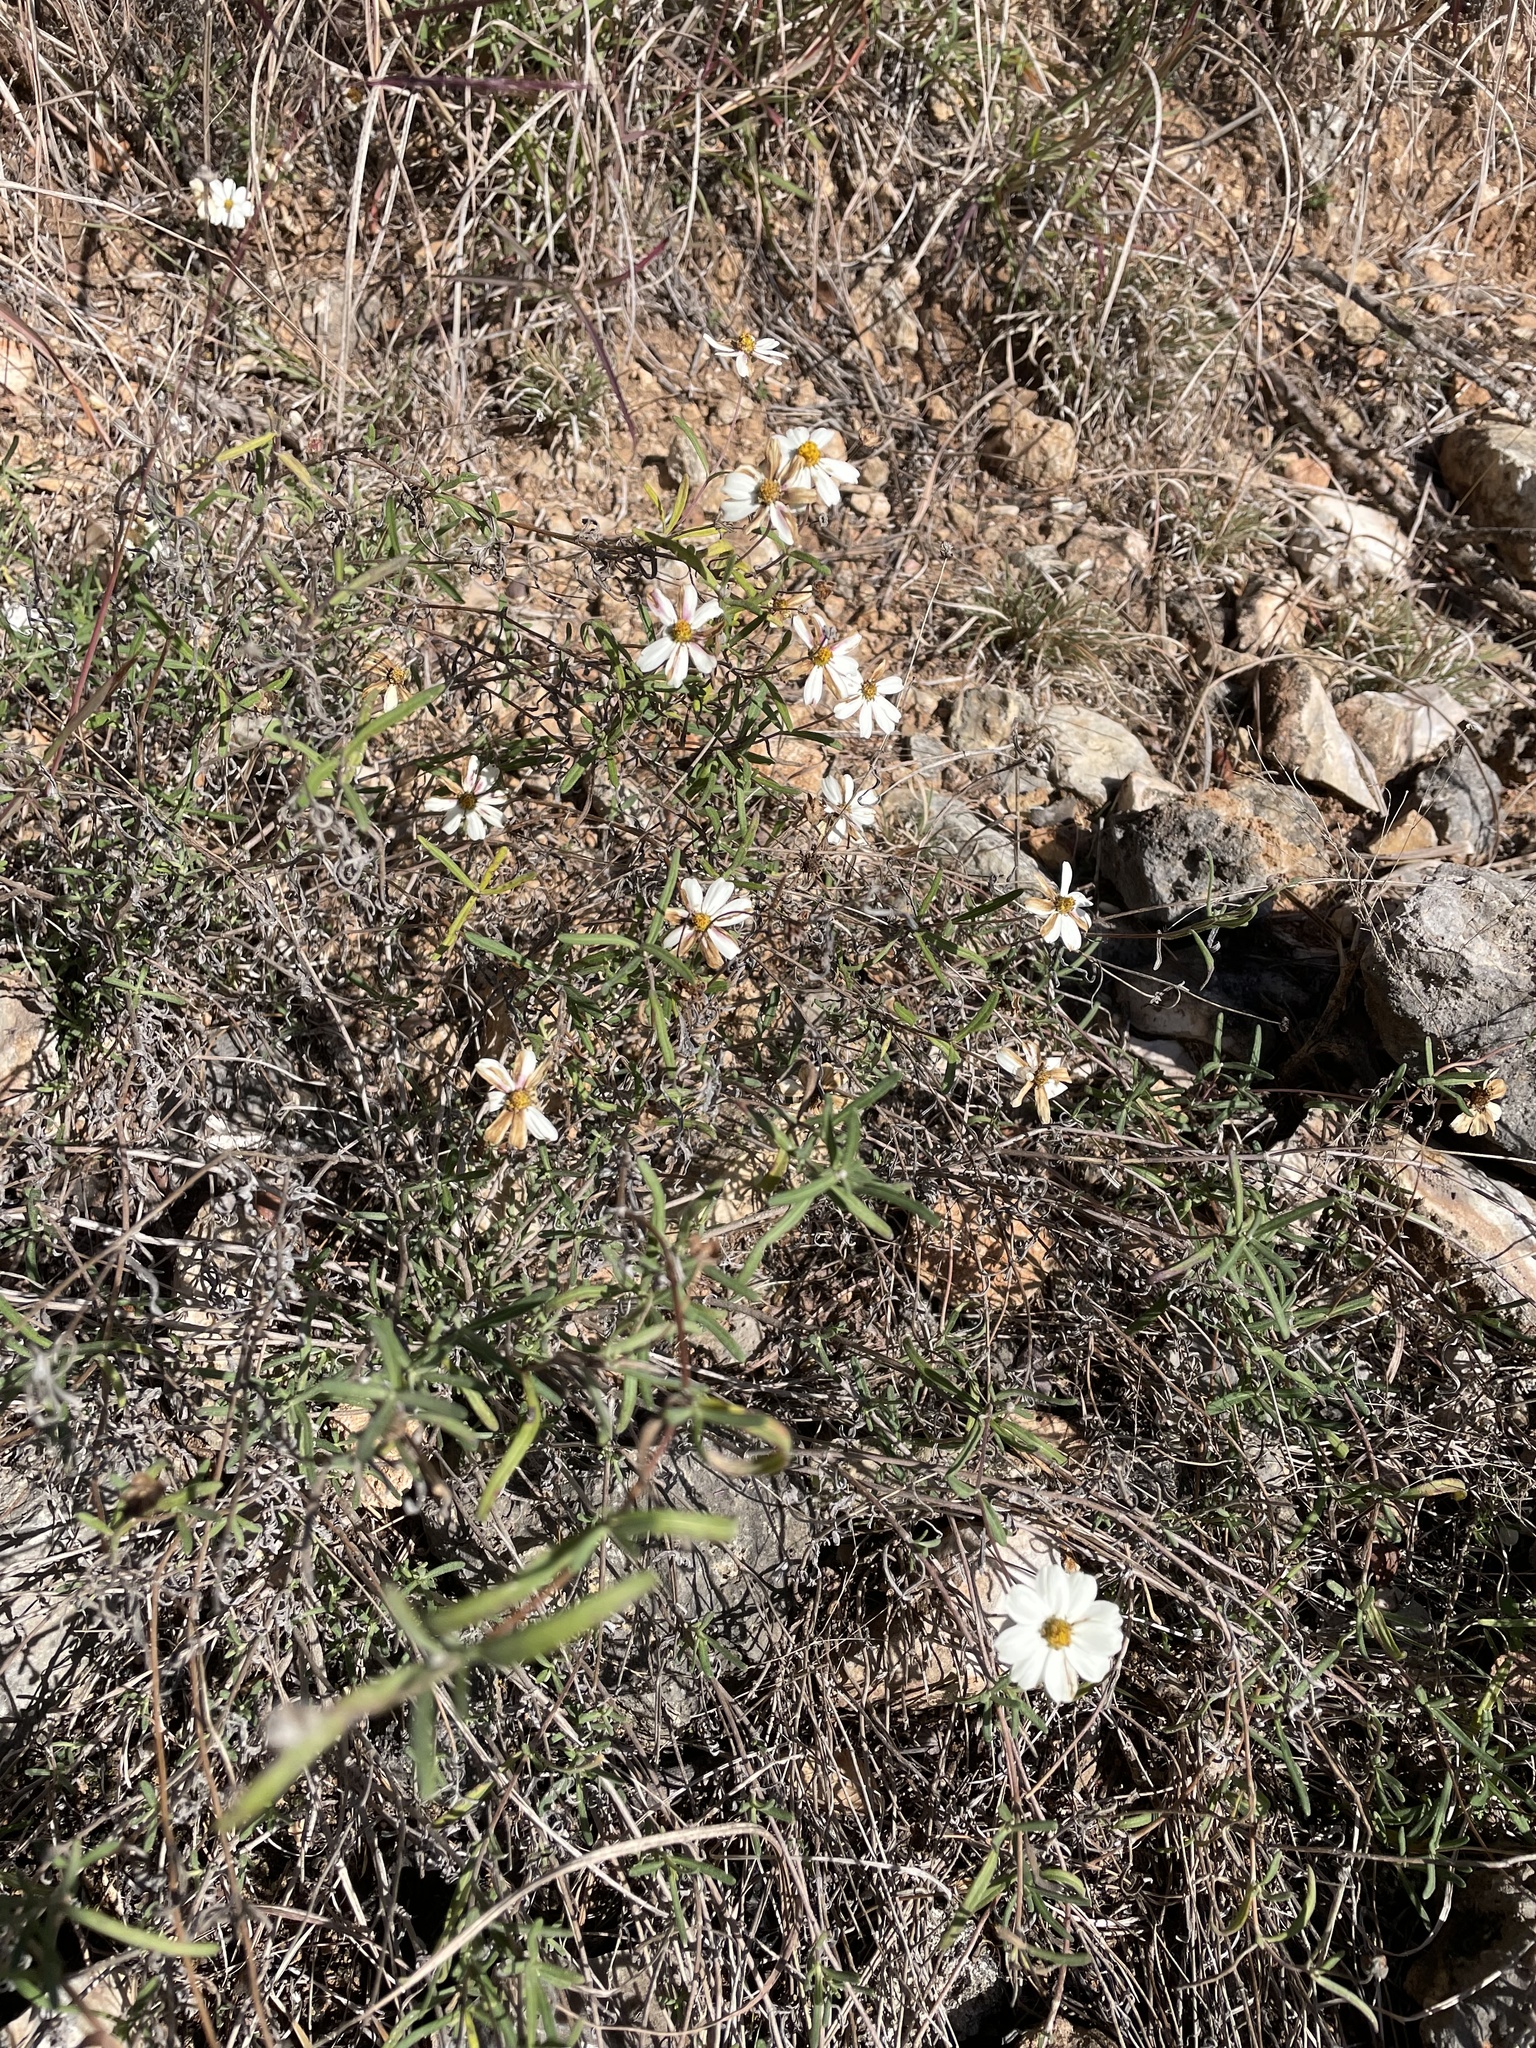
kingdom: Plantae
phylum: Tracheophyta
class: Magnoliopsida
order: Asterales
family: Asteraceae
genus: Melampodium
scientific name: Melampodium leucanthum
